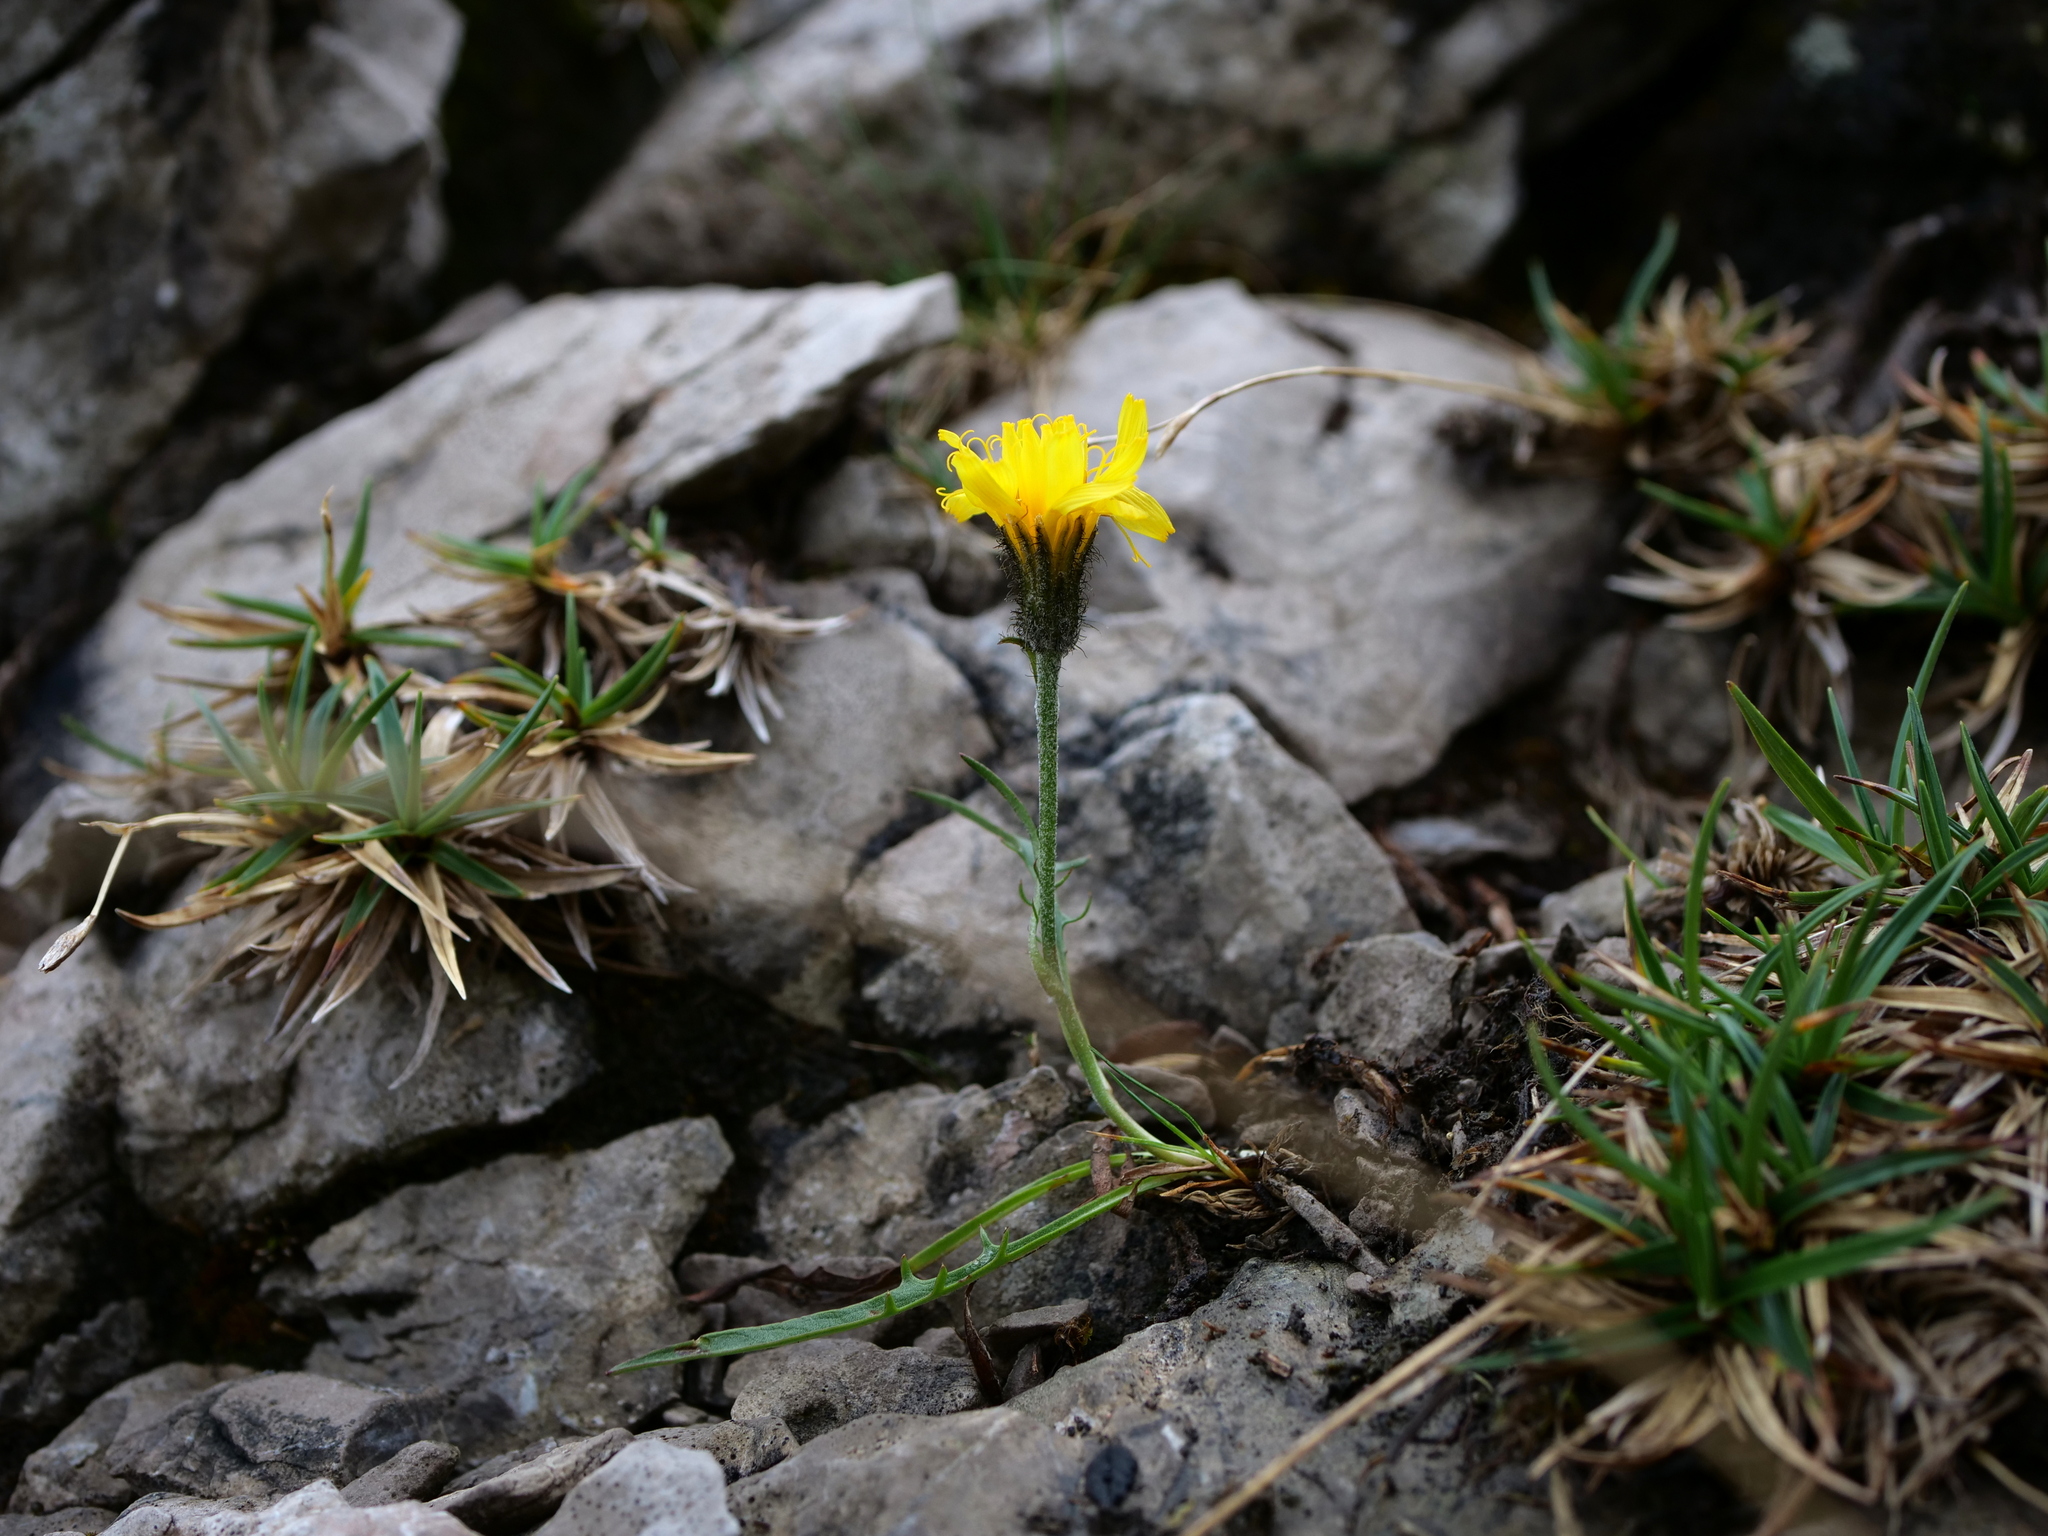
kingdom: Plantae
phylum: Tracheophyta
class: Magnoliopsida
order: Asterales
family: Asteraceae
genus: Crepis
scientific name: Crepis jacquinii
